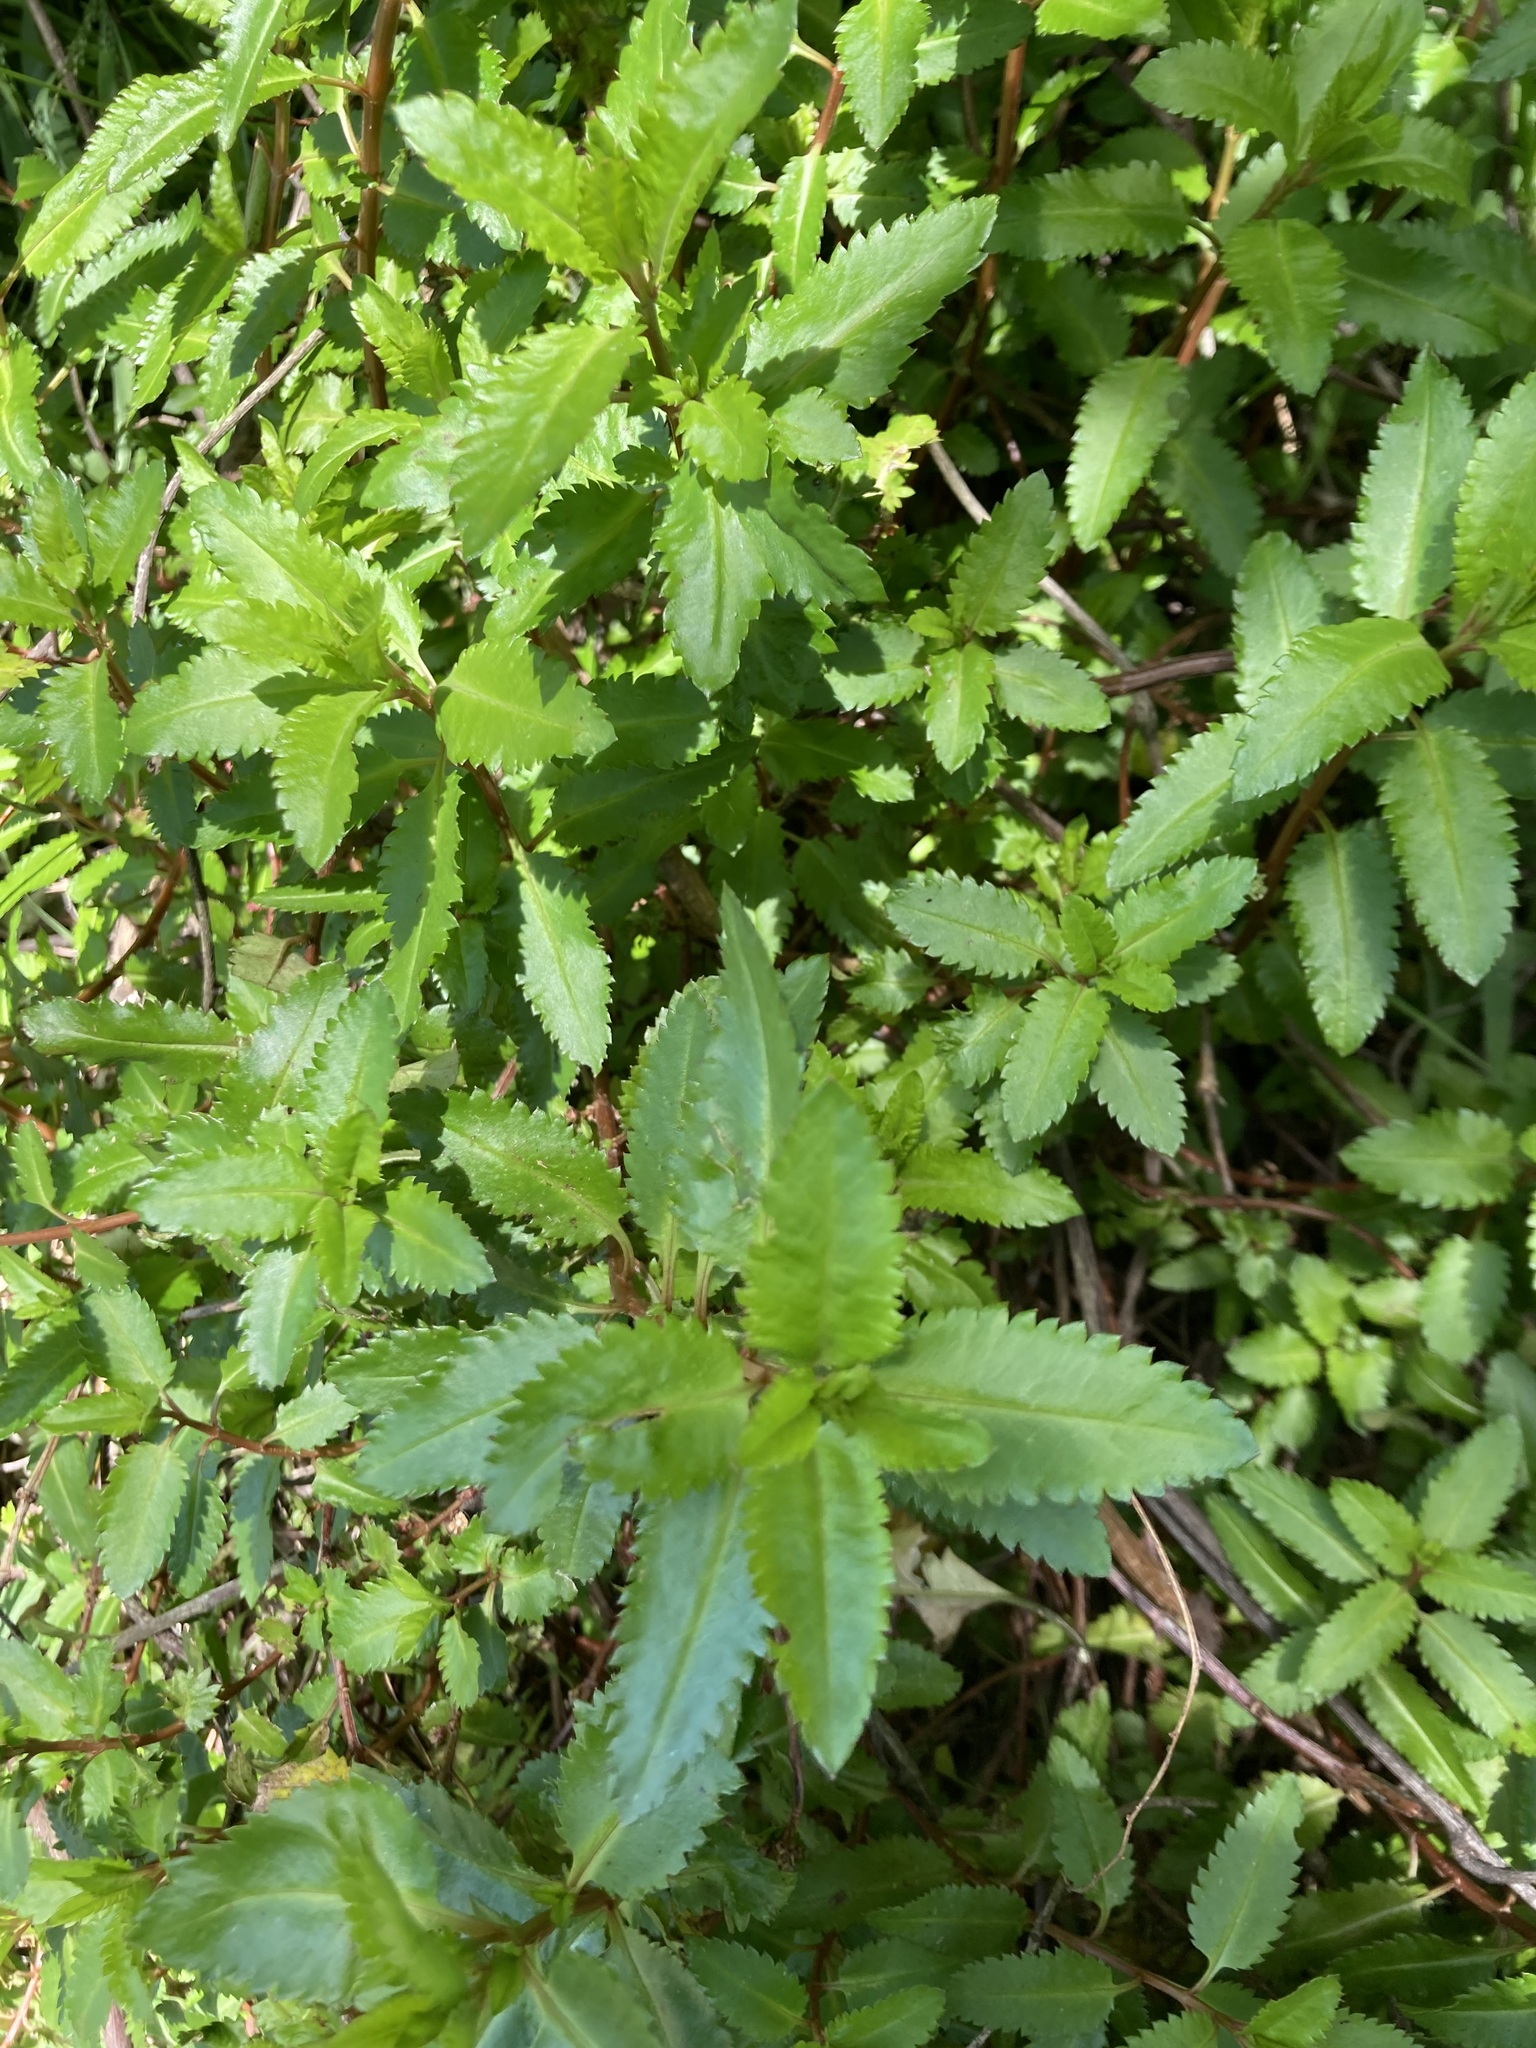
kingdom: Plantae
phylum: Tracheophyta
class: Magnoliopsida
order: Saxifragales
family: Haloragaceae
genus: Haloragis
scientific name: Haloragis erecta
